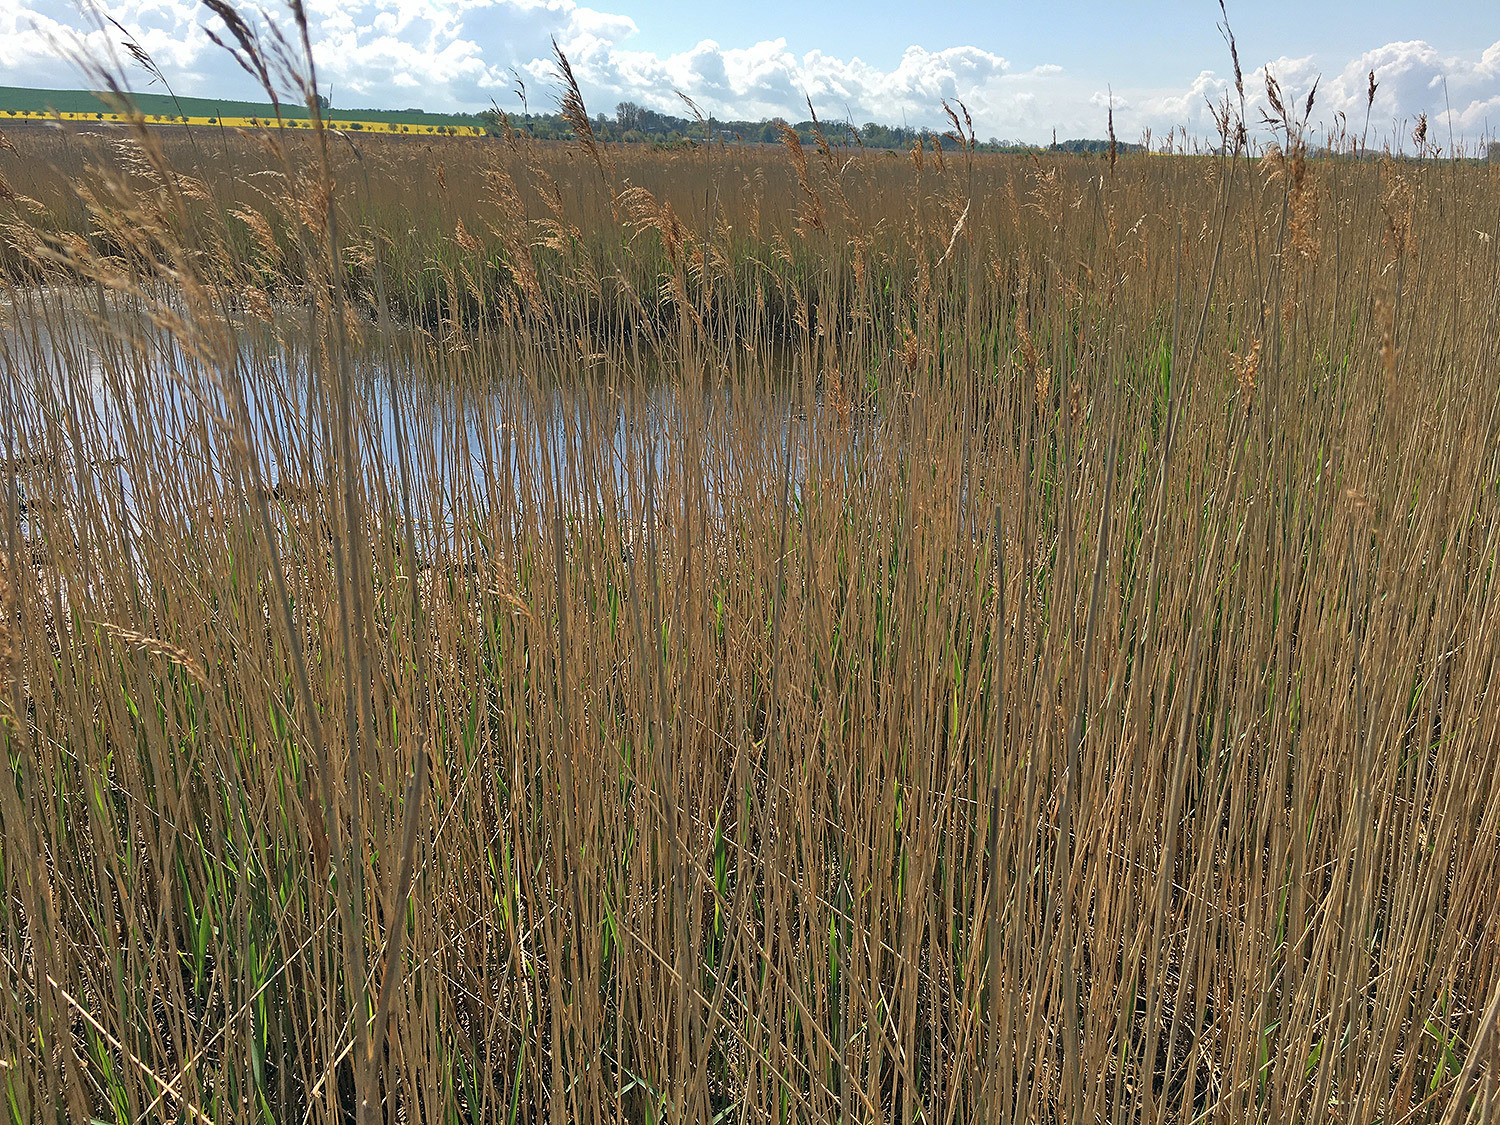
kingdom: Plantae
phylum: Tracheophyta
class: Liliopsida
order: Poales
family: Poaceae
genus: Phragmites
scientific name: Phragmites australis
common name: Common reed
